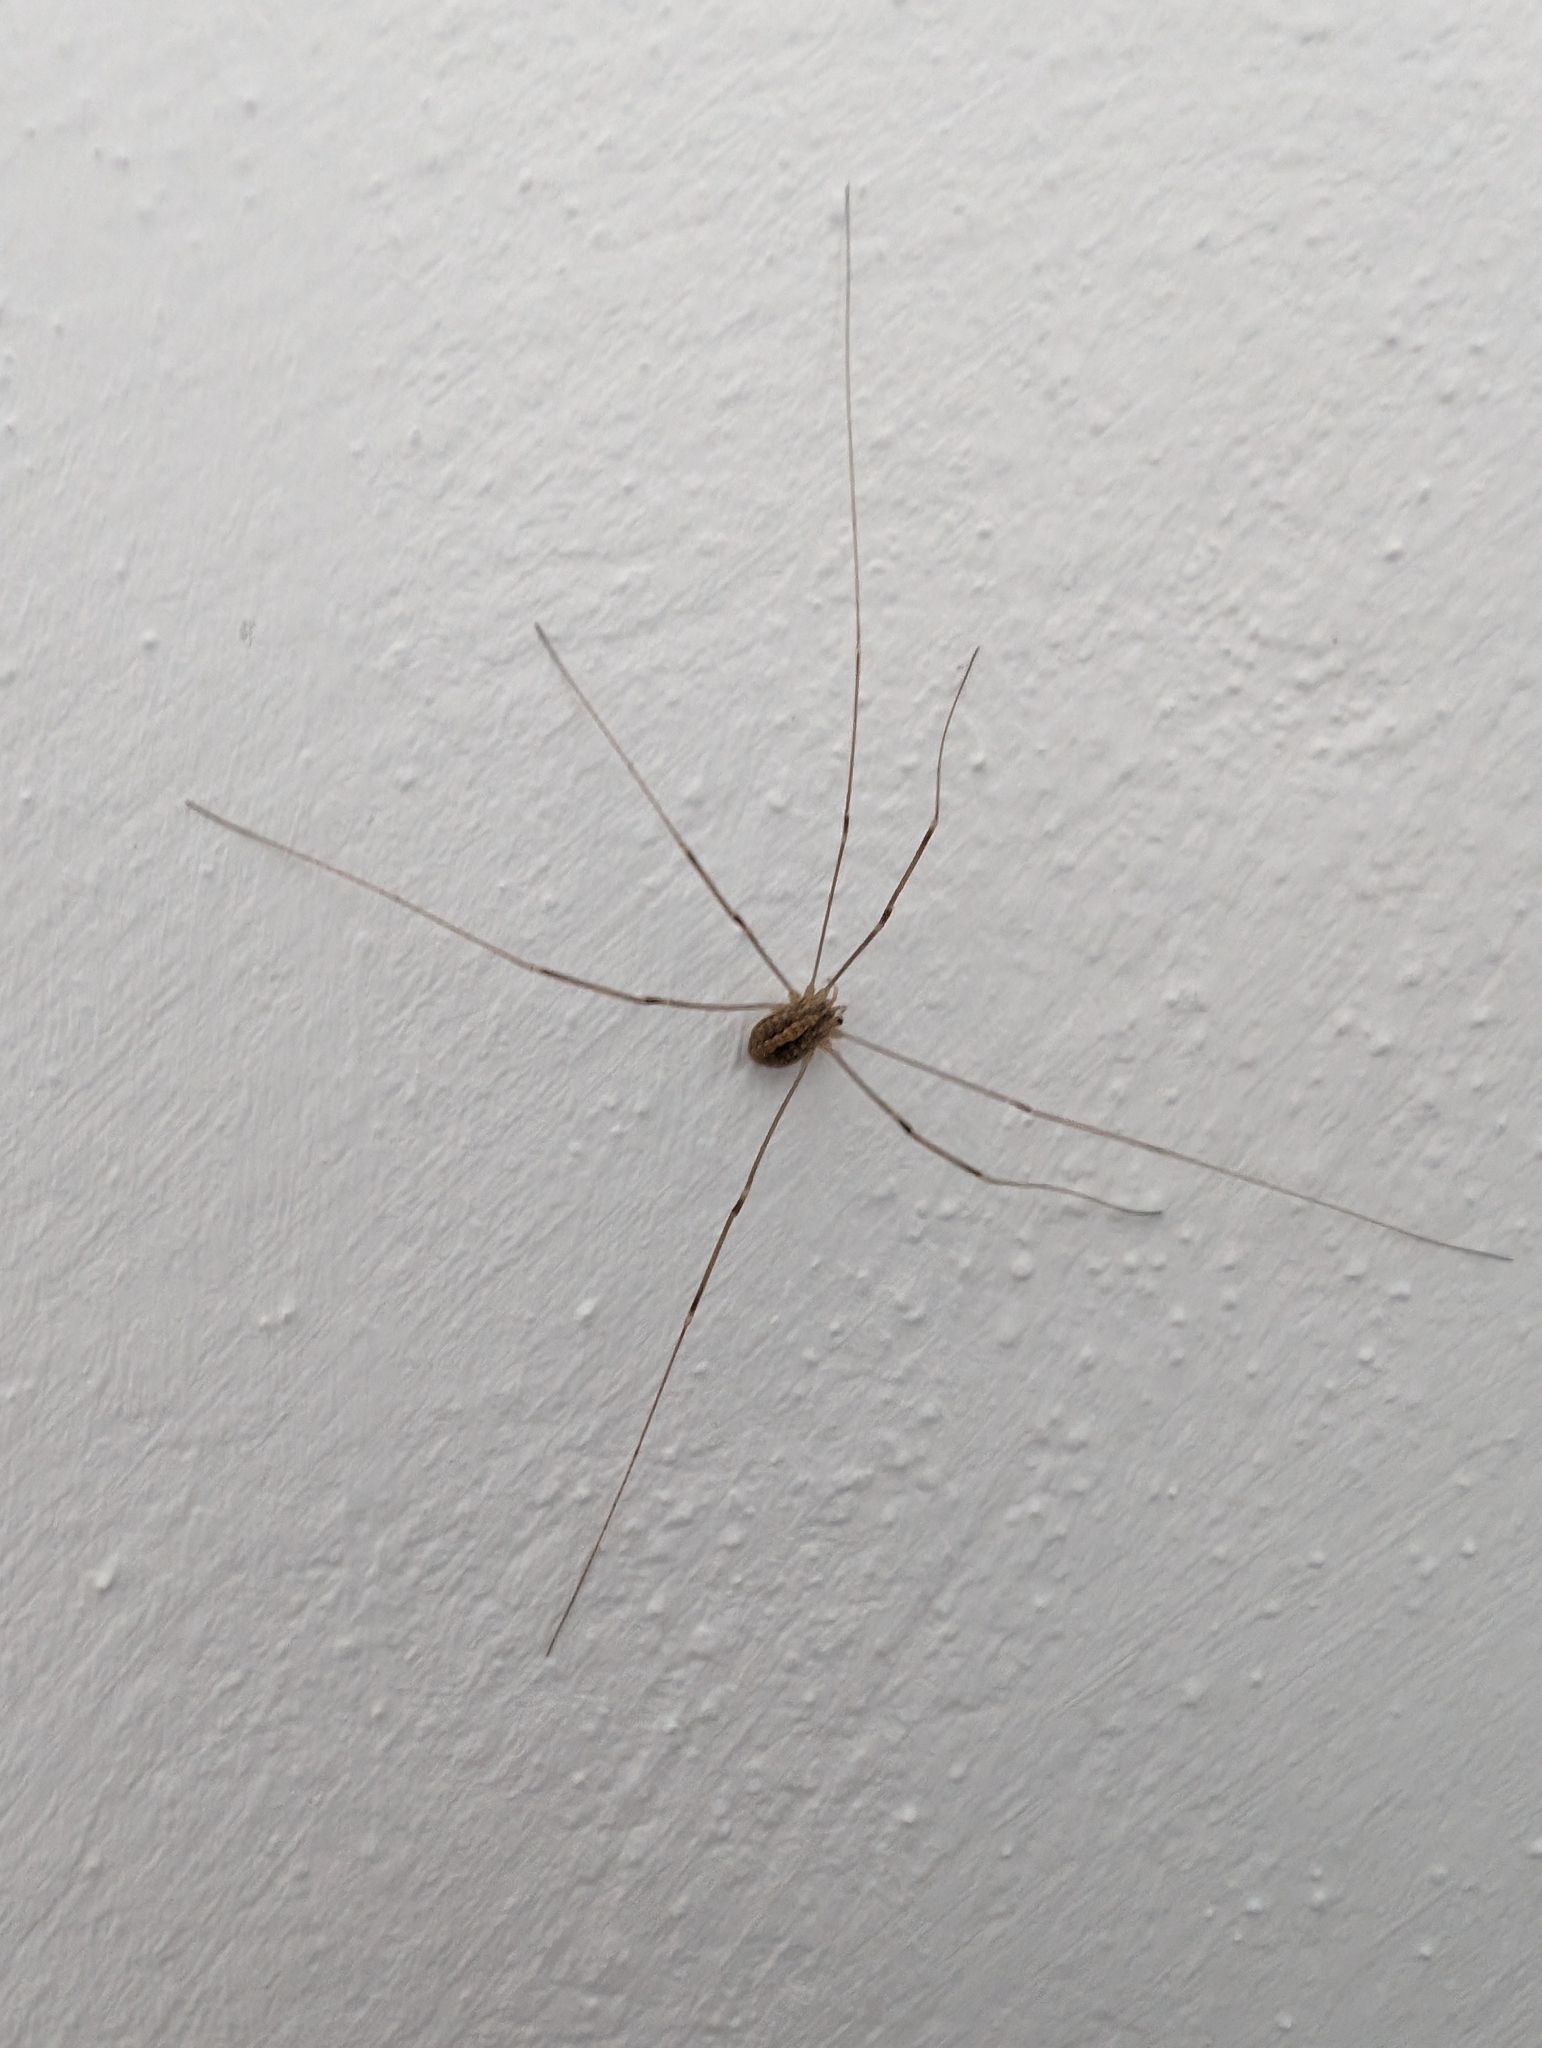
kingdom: Animalia
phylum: Arthropoda
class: Arachnida
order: Opiliones
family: Sclerosomatidae
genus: Cosmobunus
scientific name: Cosmobunus granarius
